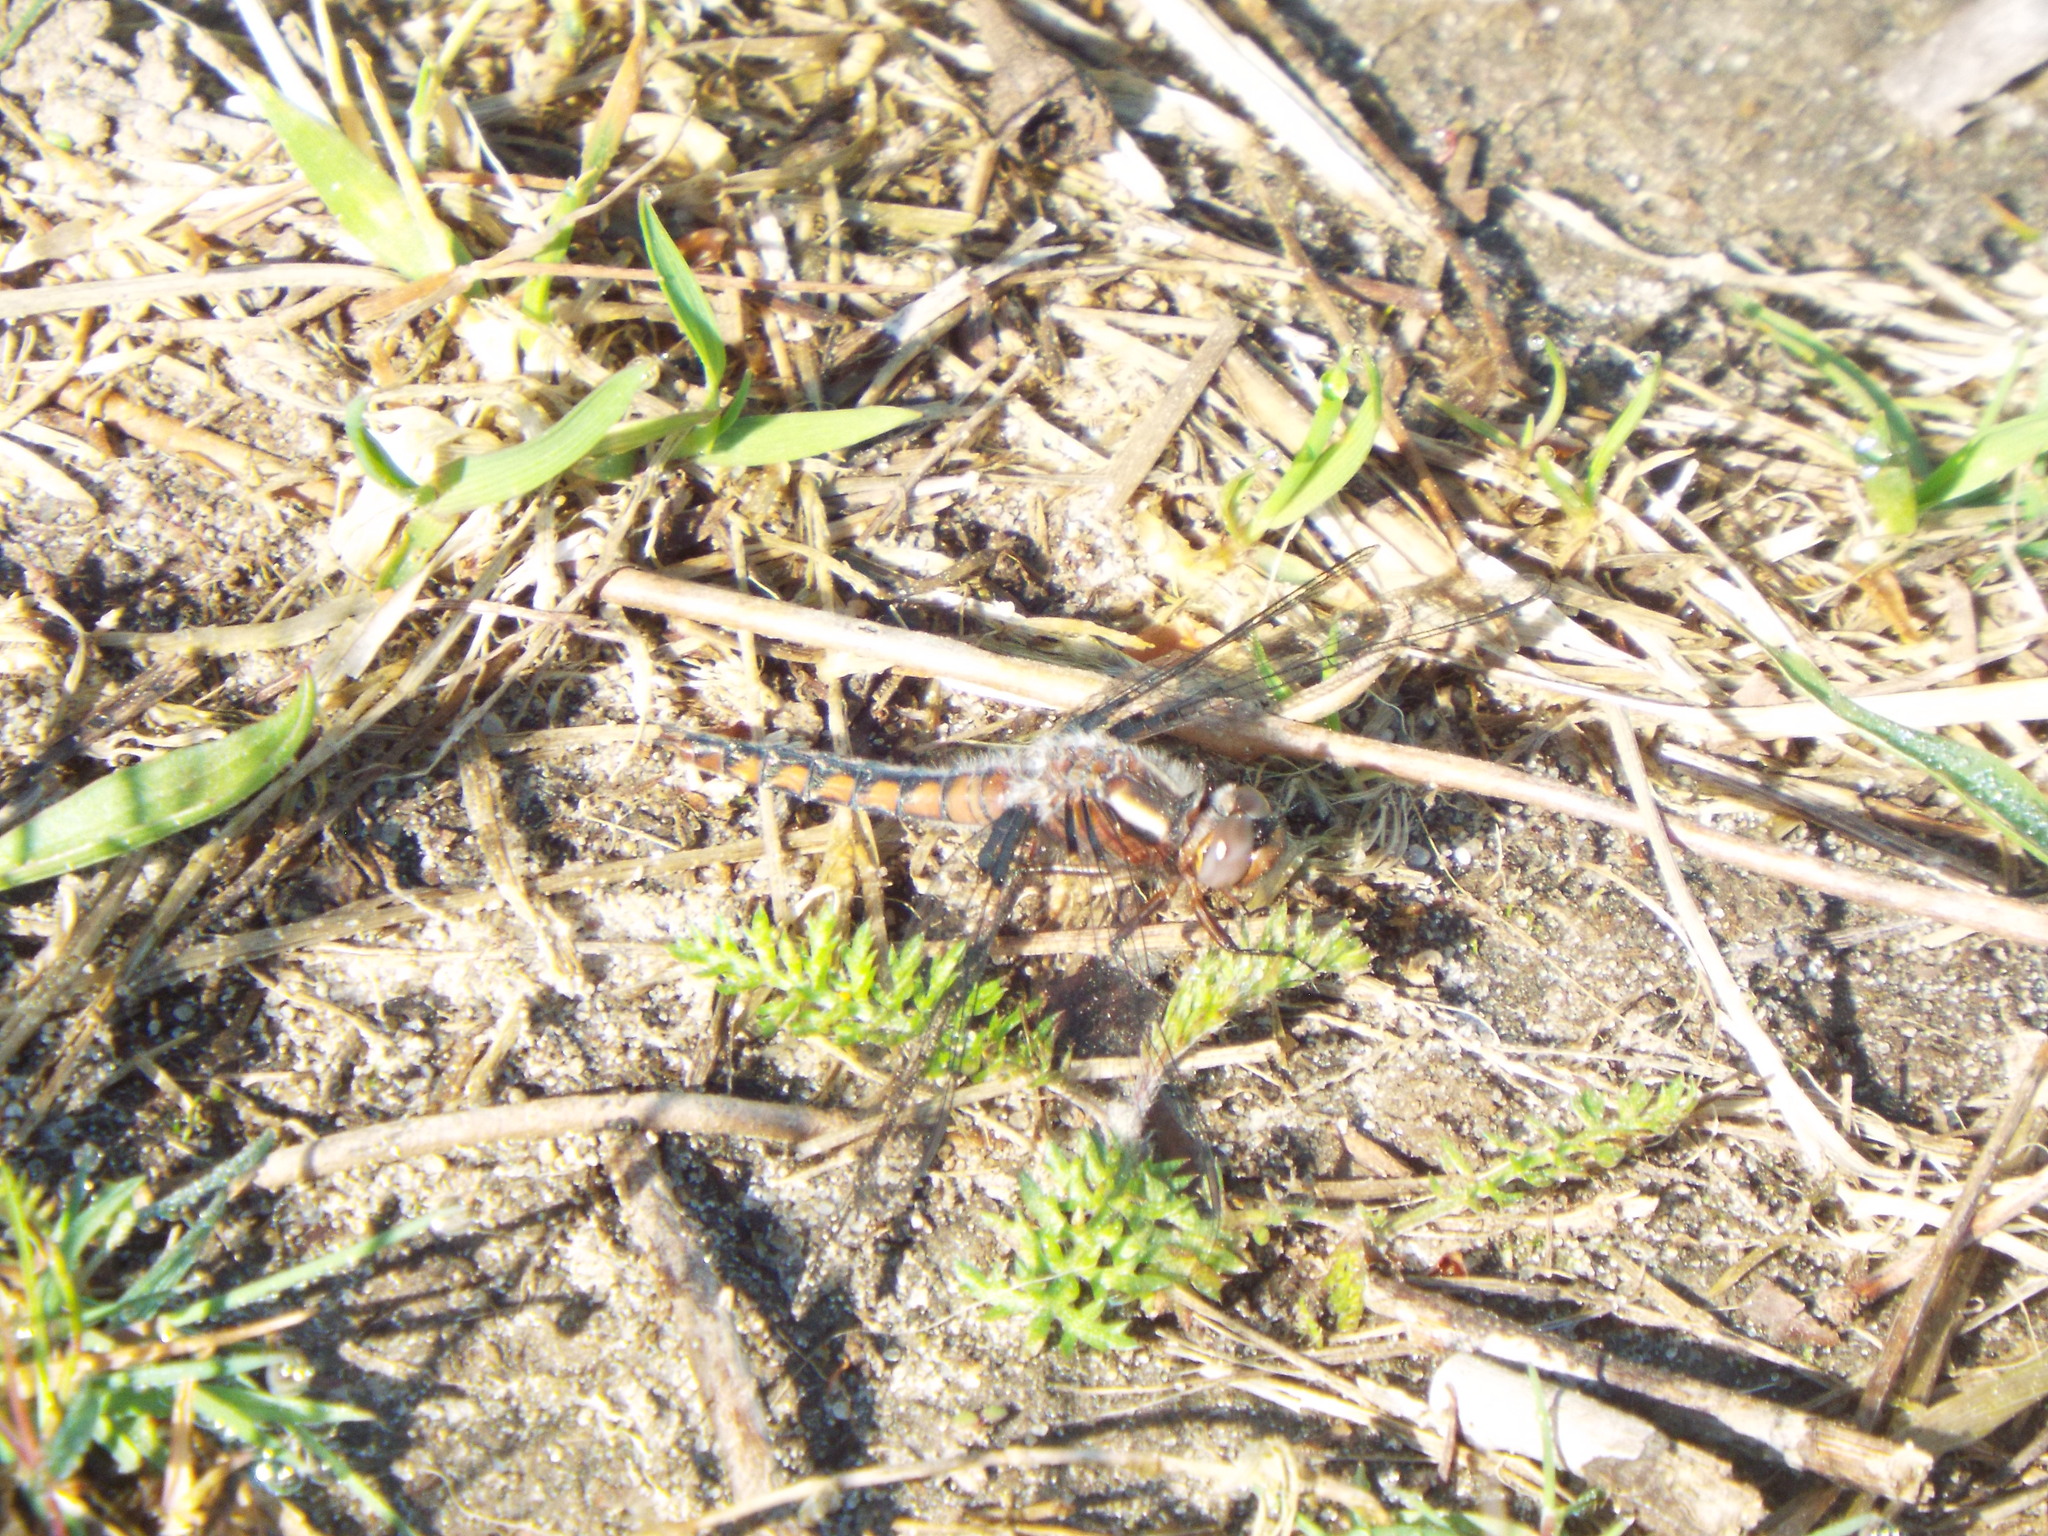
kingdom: Animalia
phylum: Arthropoda
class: Insecta
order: Odonata
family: Libellulidae
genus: Ladona
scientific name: Ladona deplanata
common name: Blue corporal
